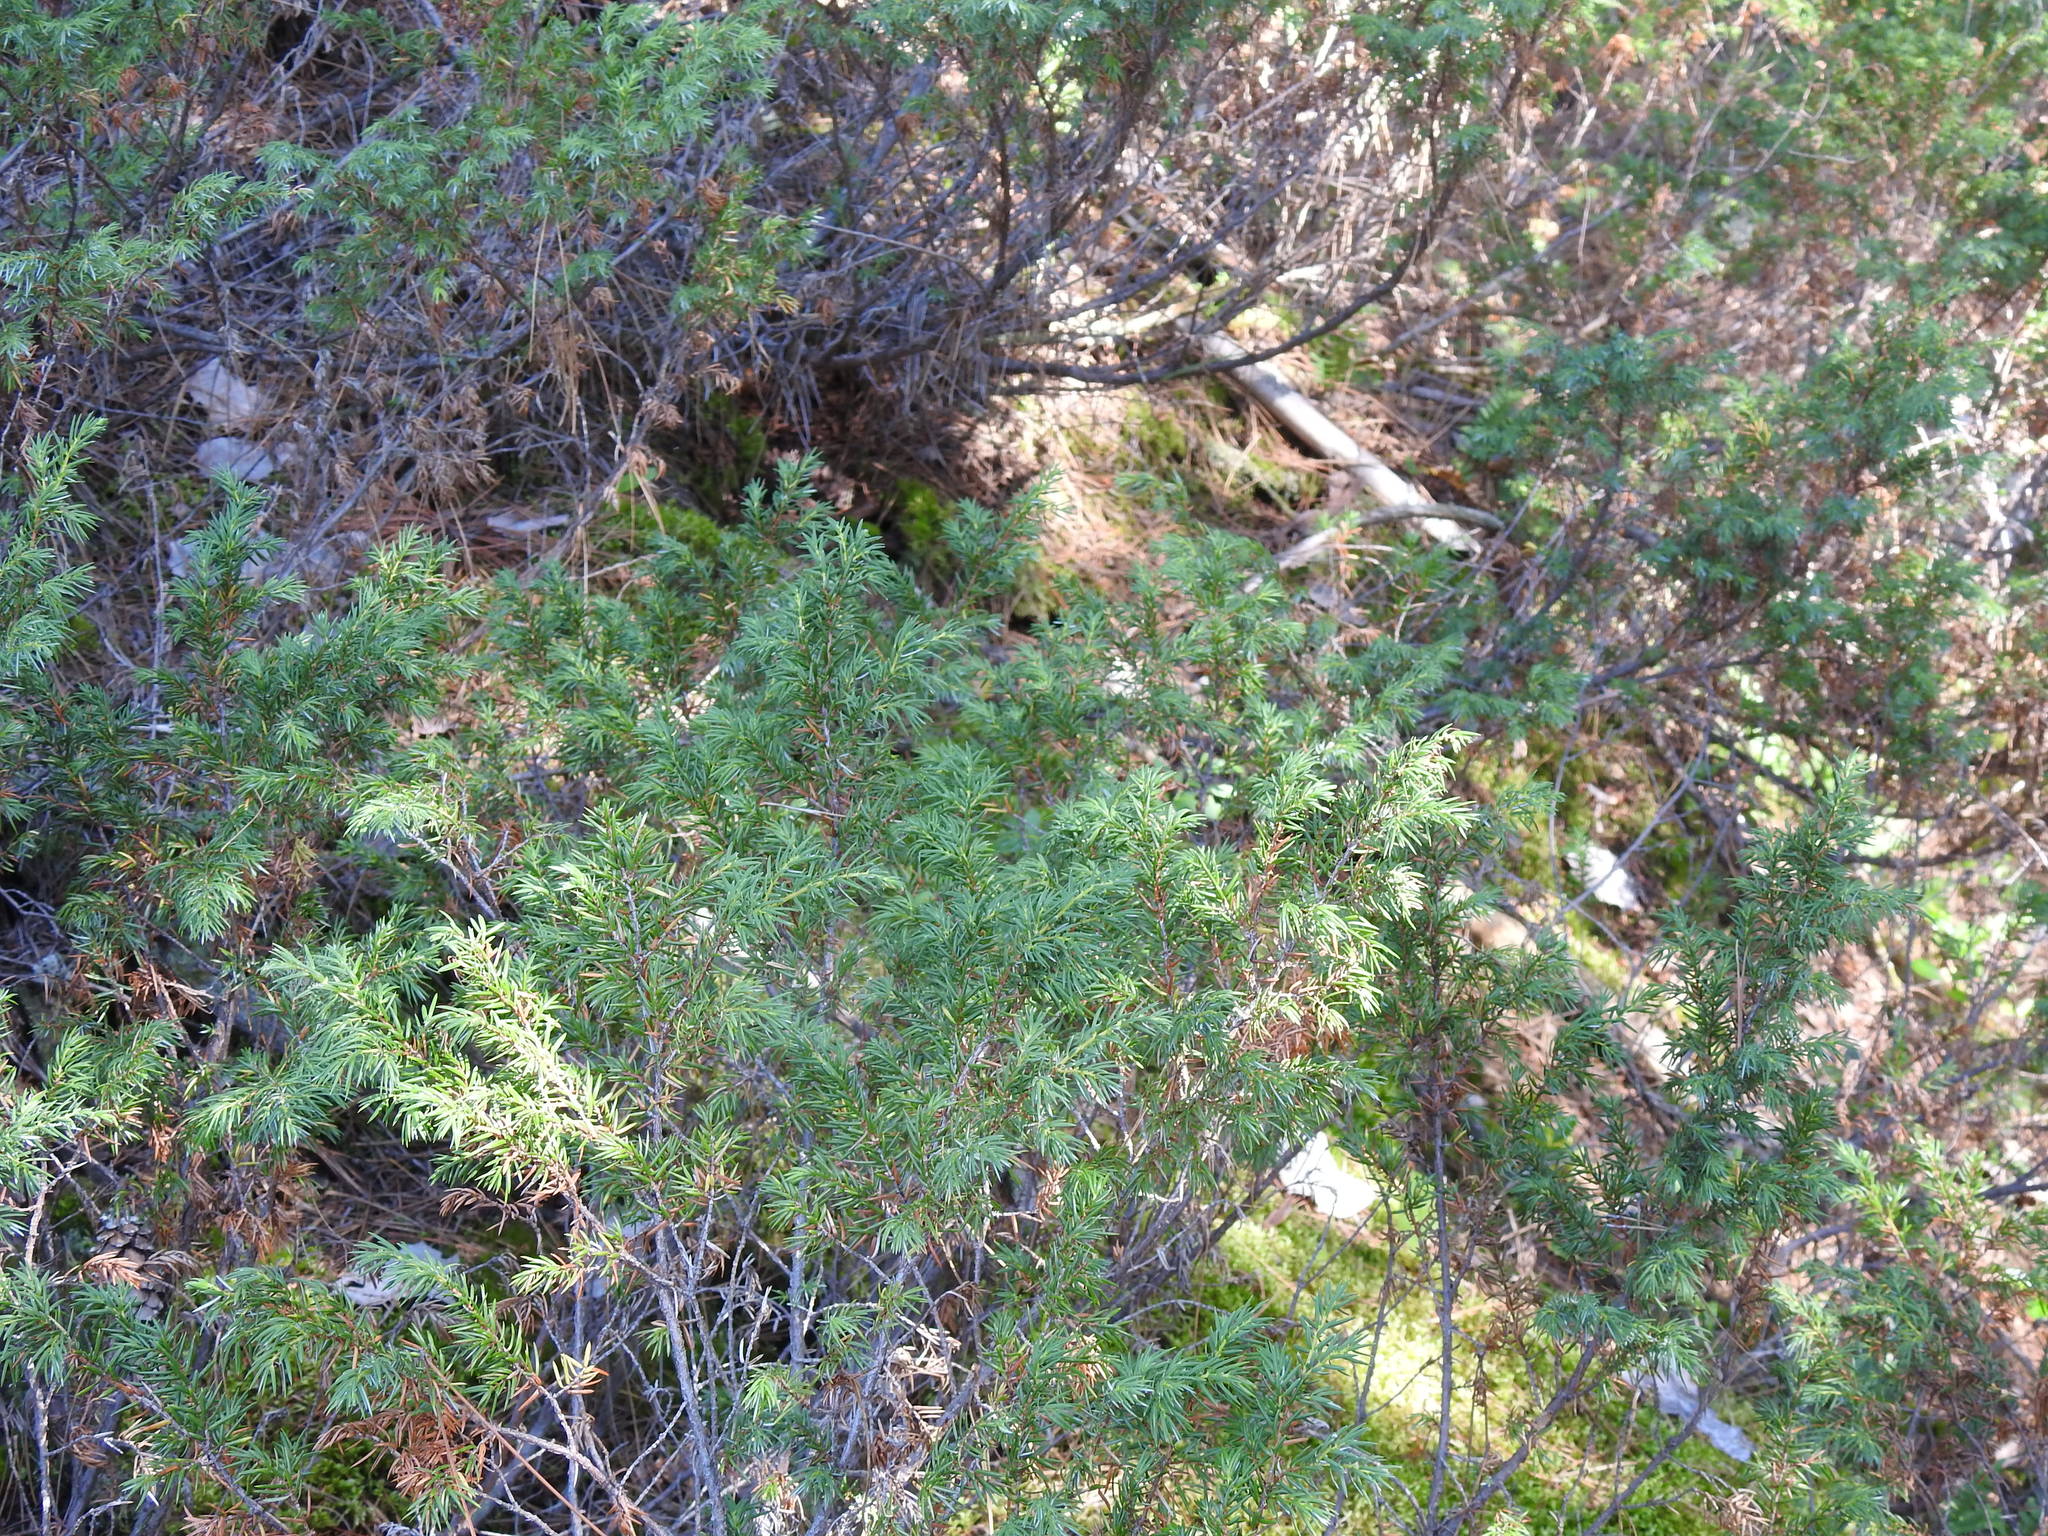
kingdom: Plantae
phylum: Tracheophyta
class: Pinopsida
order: Pinales
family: Cupressaceae
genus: Juniperus
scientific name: Juniperus communis
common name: Common juniper
